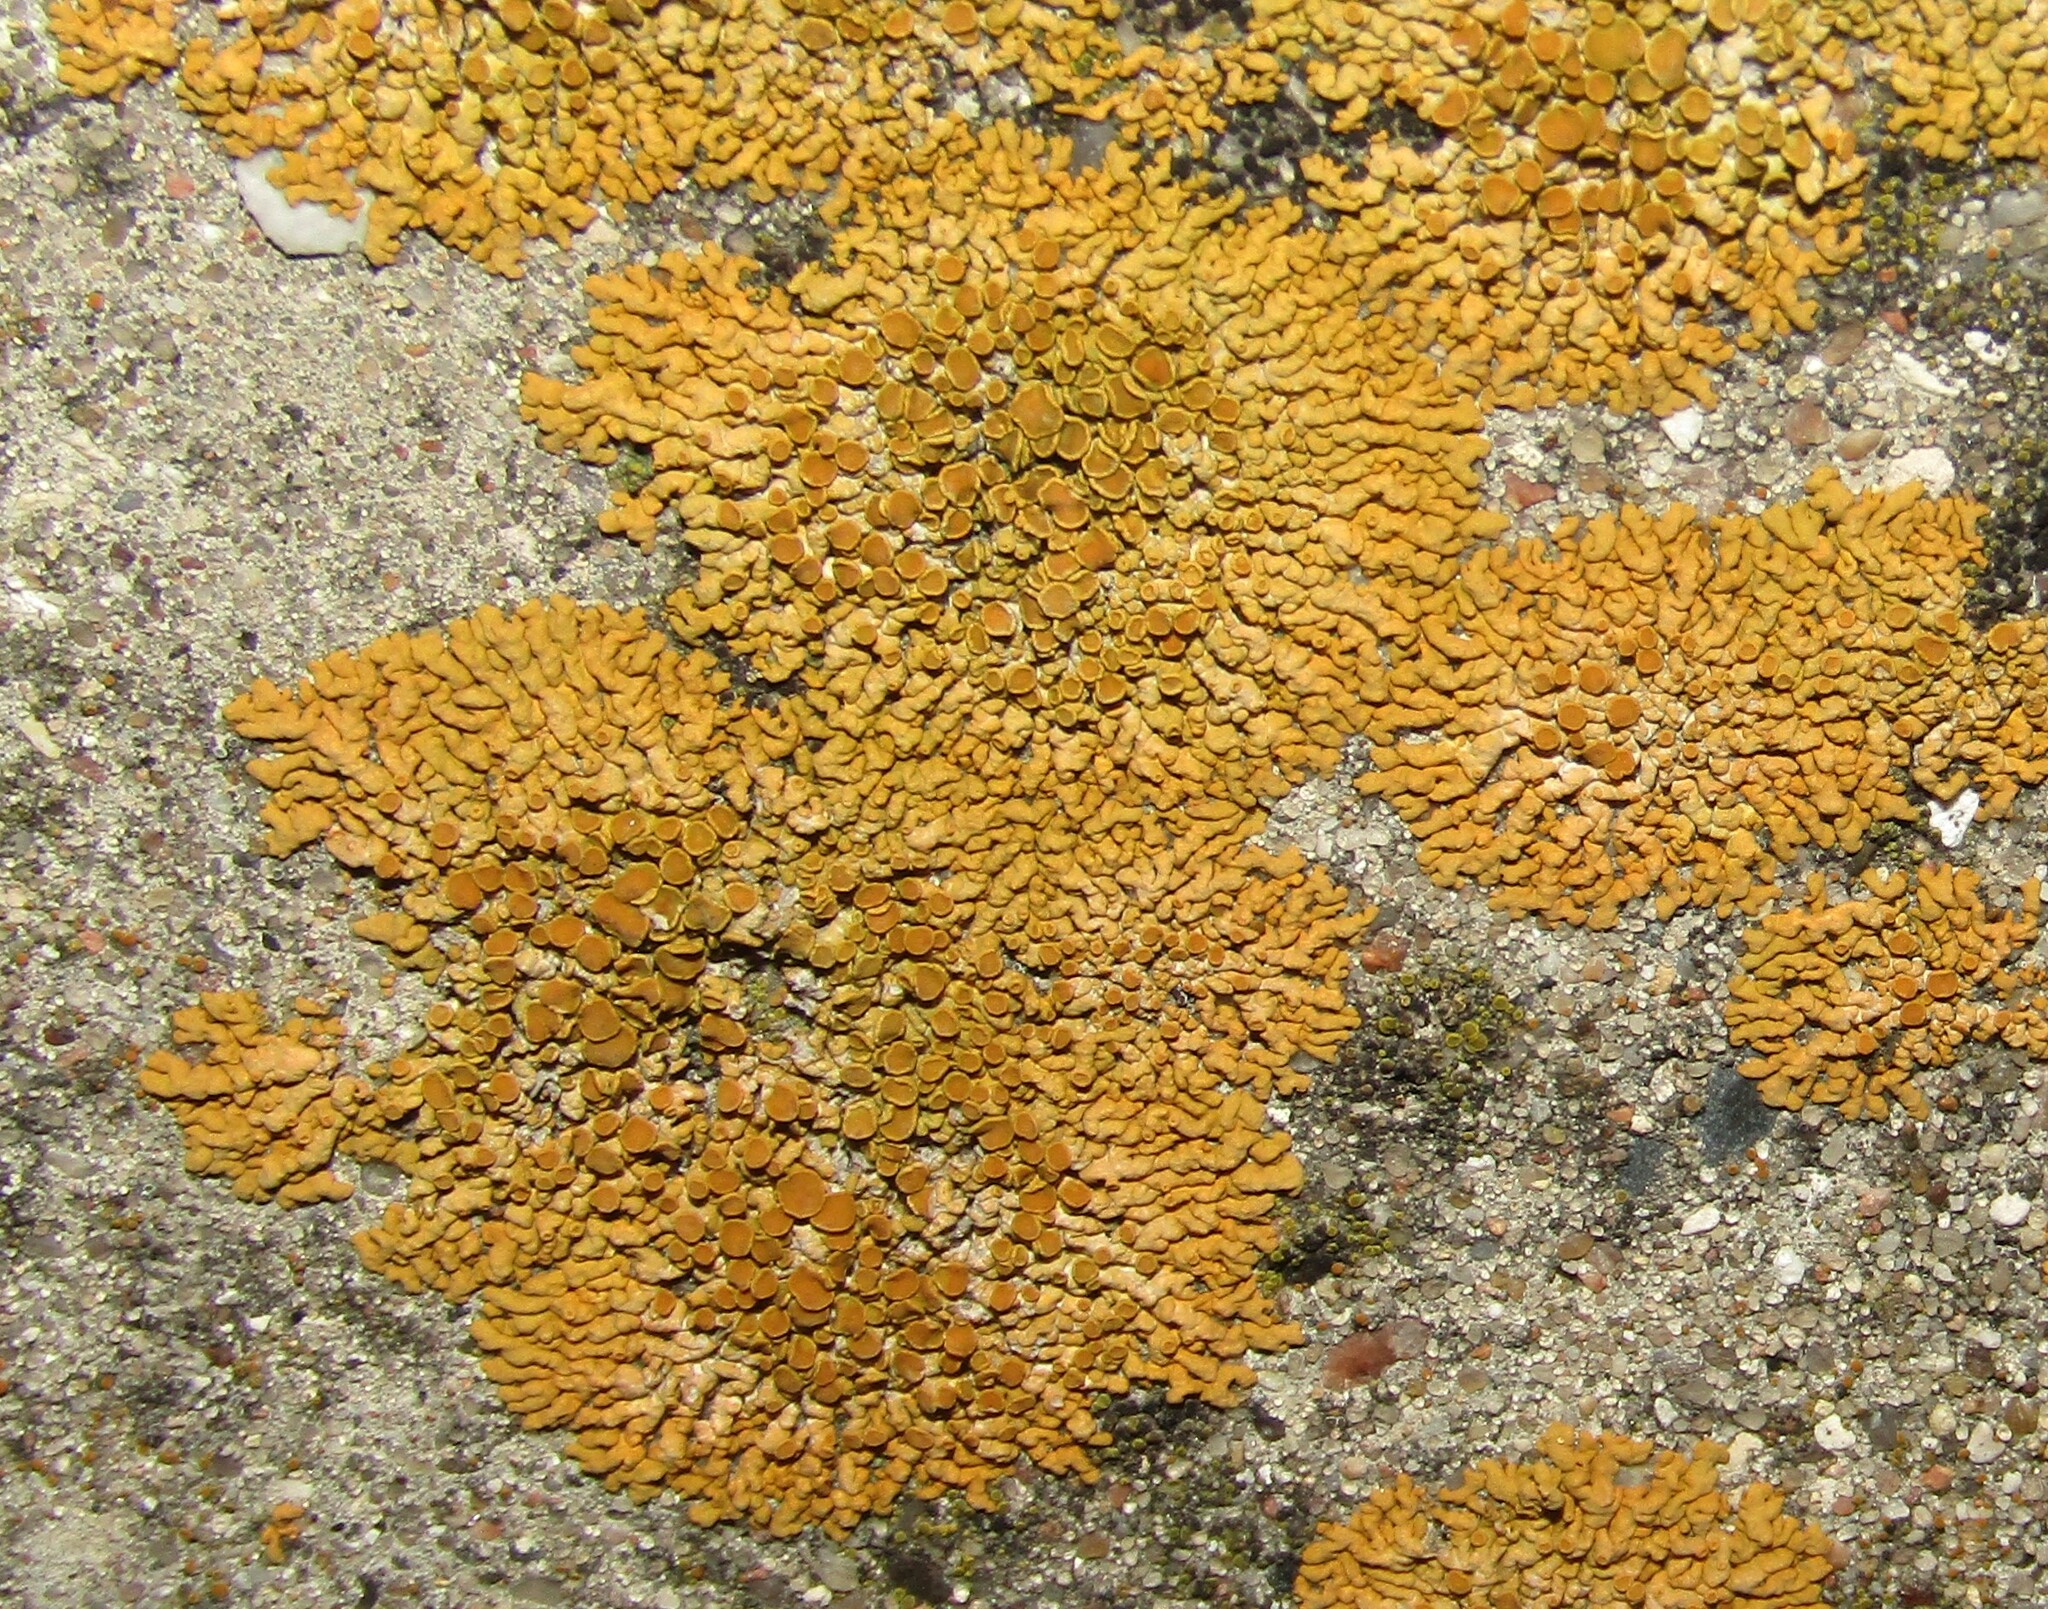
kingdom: Fungi
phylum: Ascomycota
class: Lecanoromycetes
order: Teloschistales
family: Teloschistaceae
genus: Xanthoria
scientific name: Xanthoria elegans
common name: Elegant sunburst lichen
